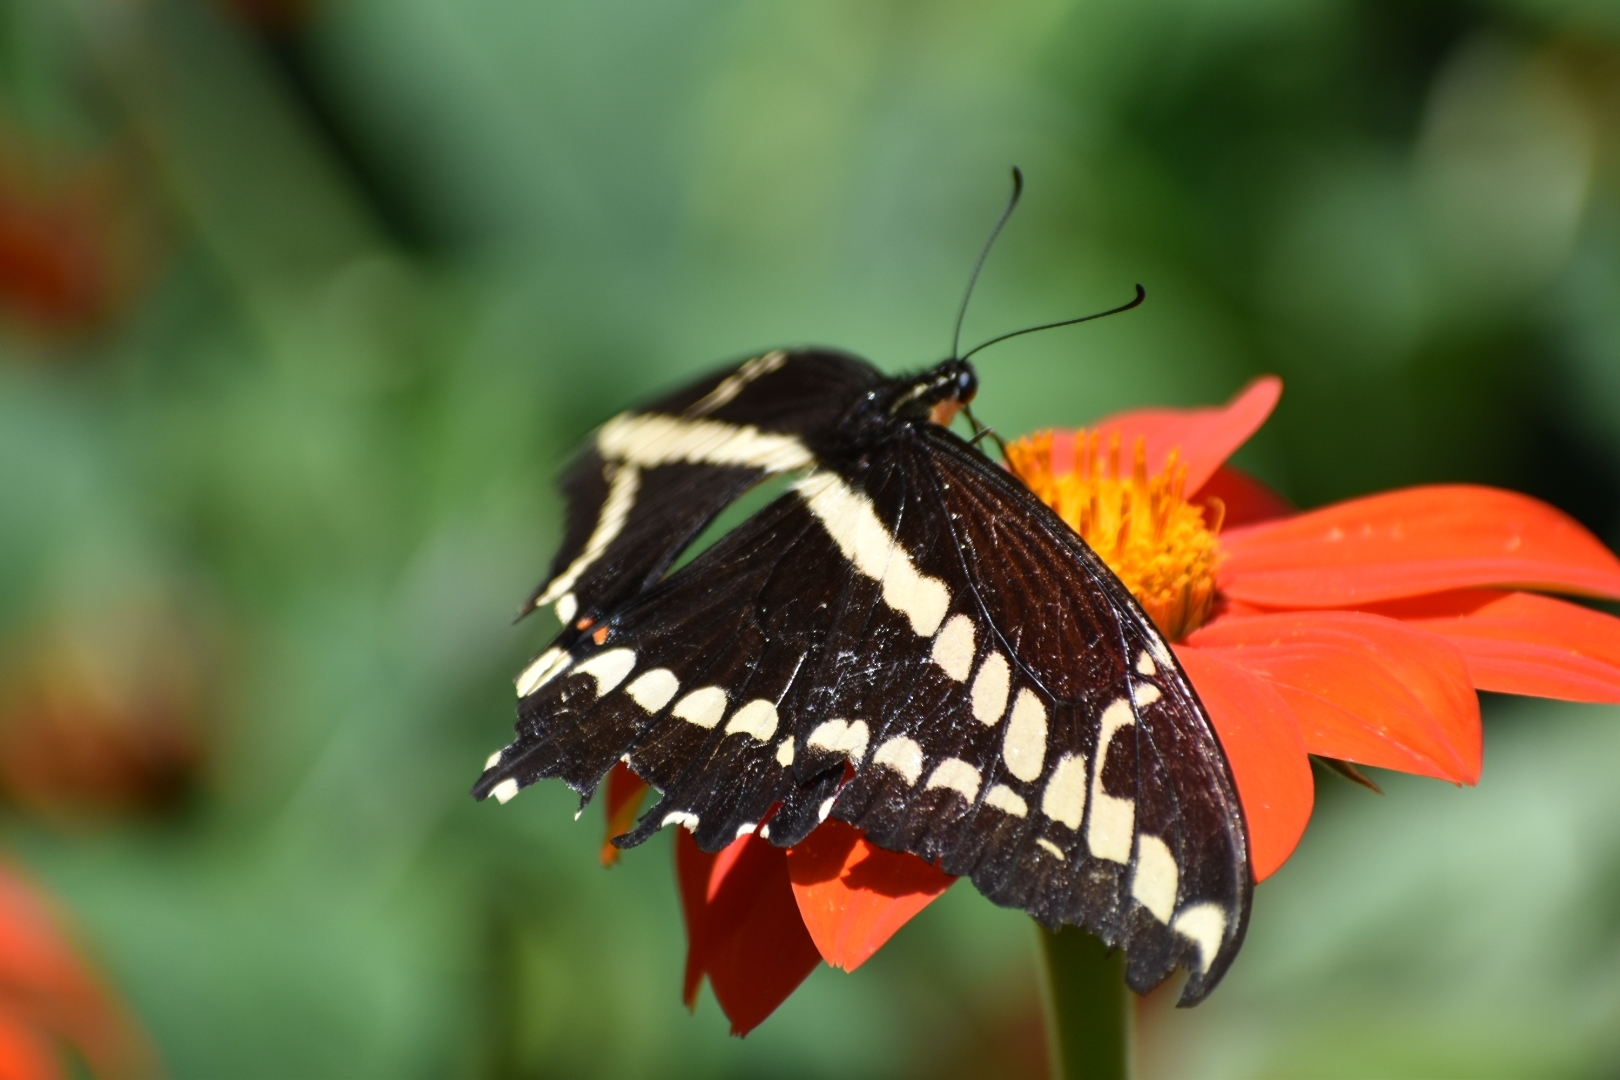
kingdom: Animalia
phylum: Arthropoda
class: Insecta
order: Lepidoptera
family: Papilionidae
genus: Papilio
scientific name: Papilio thoas
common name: King swallowtail
